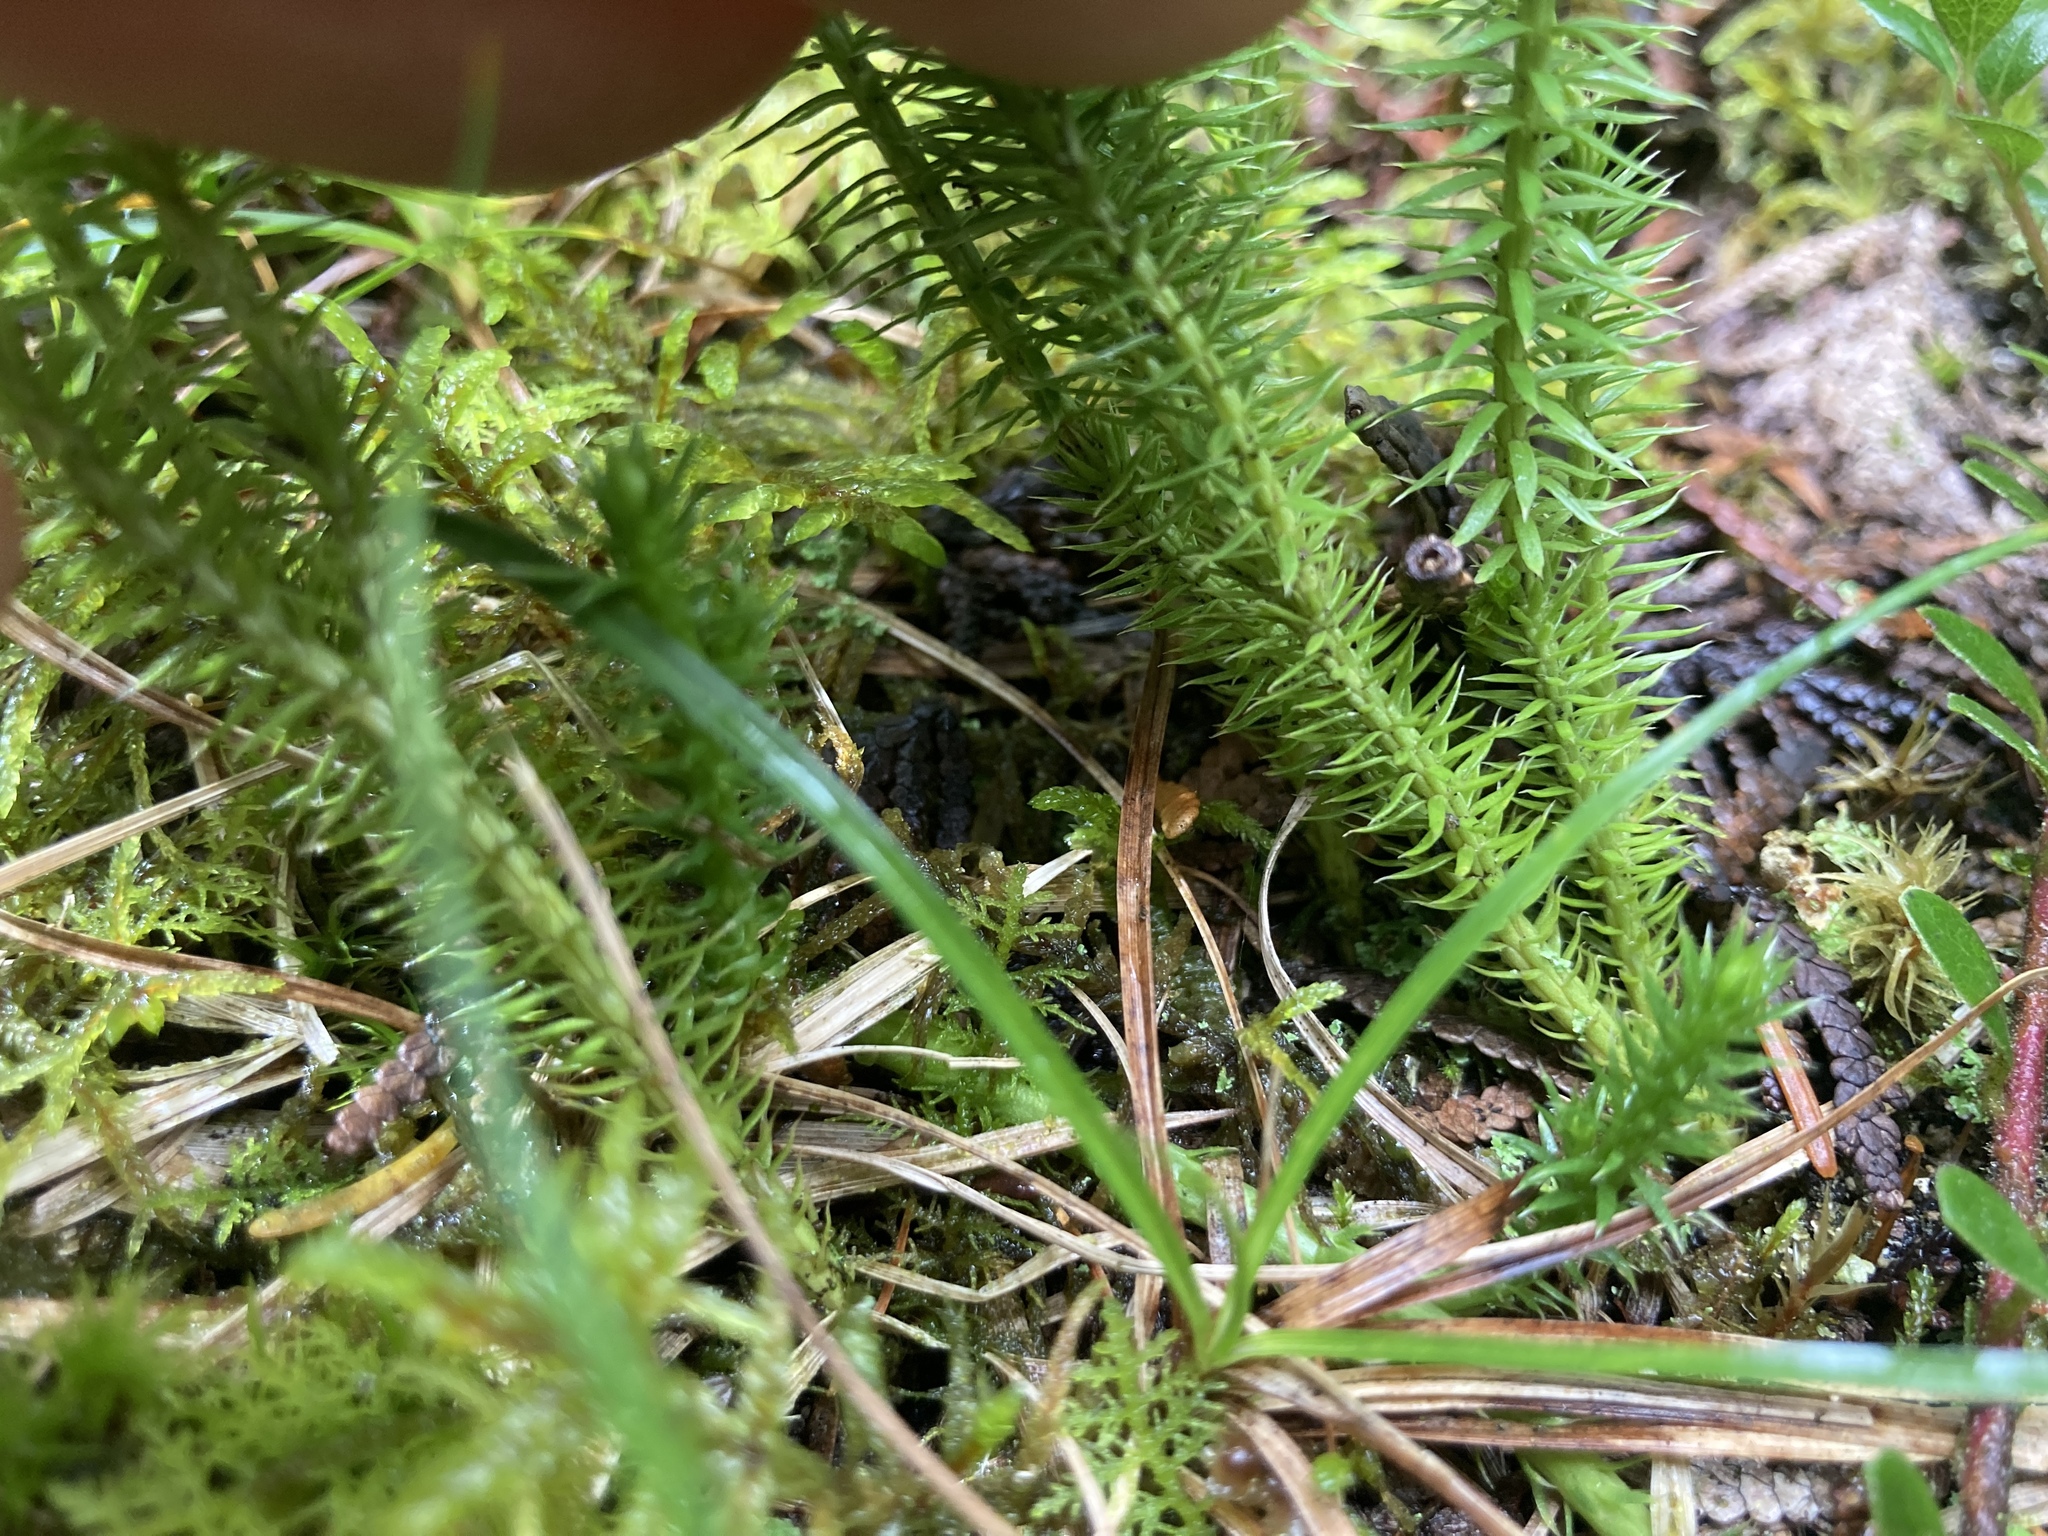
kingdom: Plantae
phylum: Tracheophyta
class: Lycopodiopsida
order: Lycopodiales
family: Lycopodiaceae
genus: Spinulum
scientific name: Spinulum annotinum
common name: Interrupted club-moss
